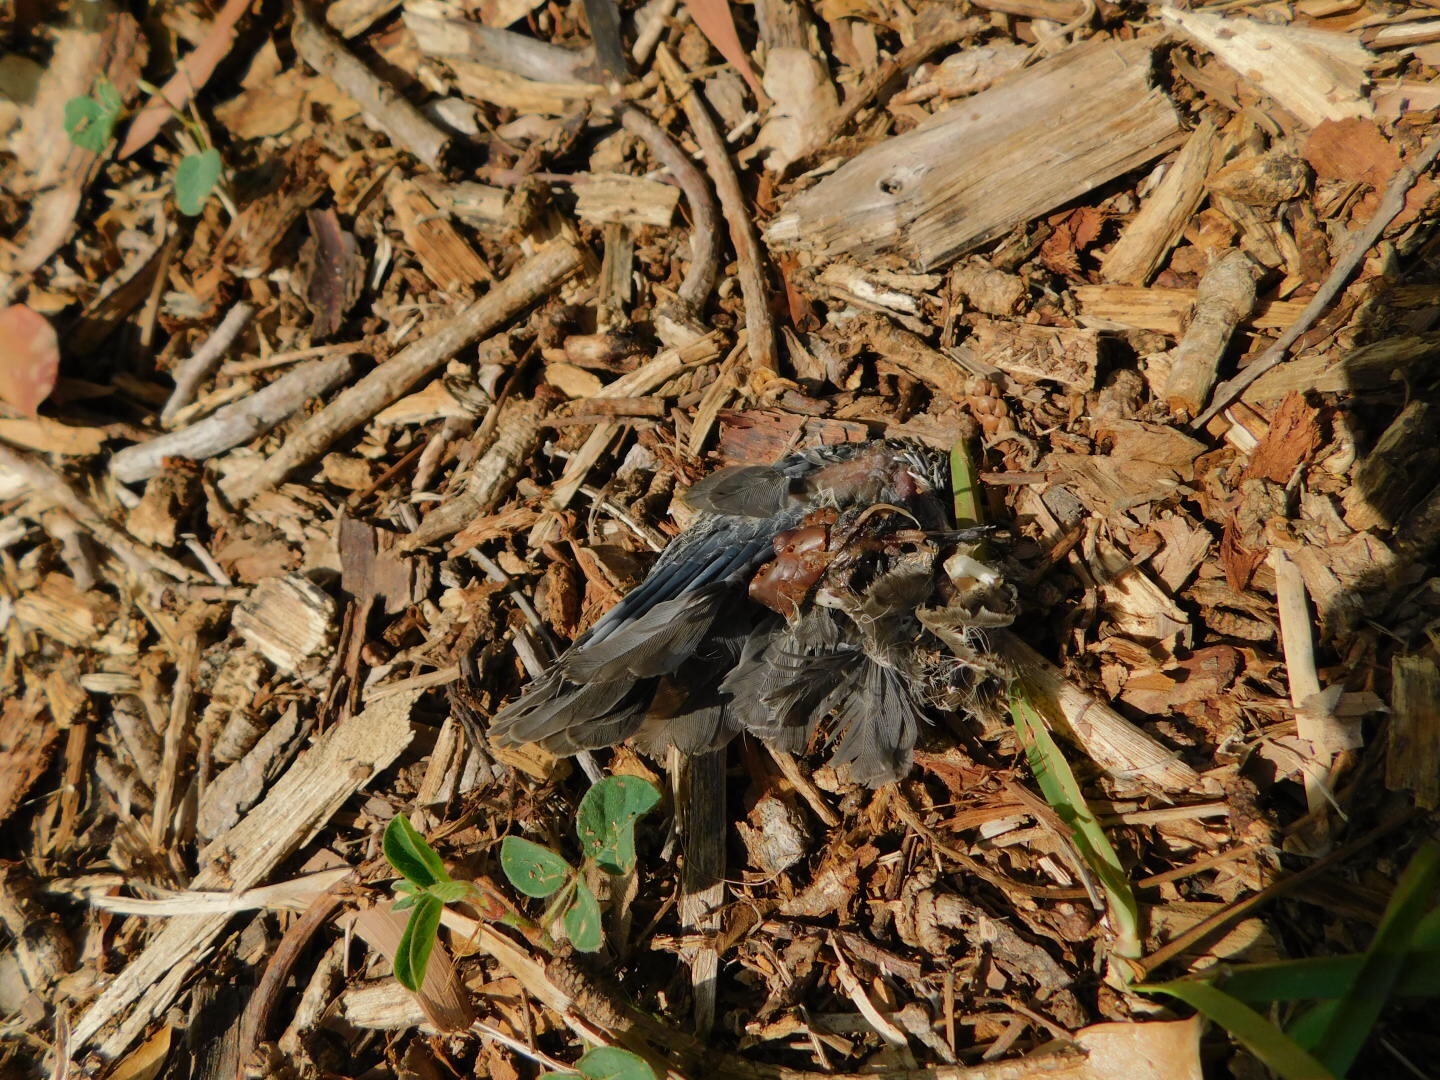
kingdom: Animalia
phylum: Chordata
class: Aves
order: Columbiformes
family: Columbidae
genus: Zenaida
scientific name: Zenaida macroura
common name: Mourning dove
